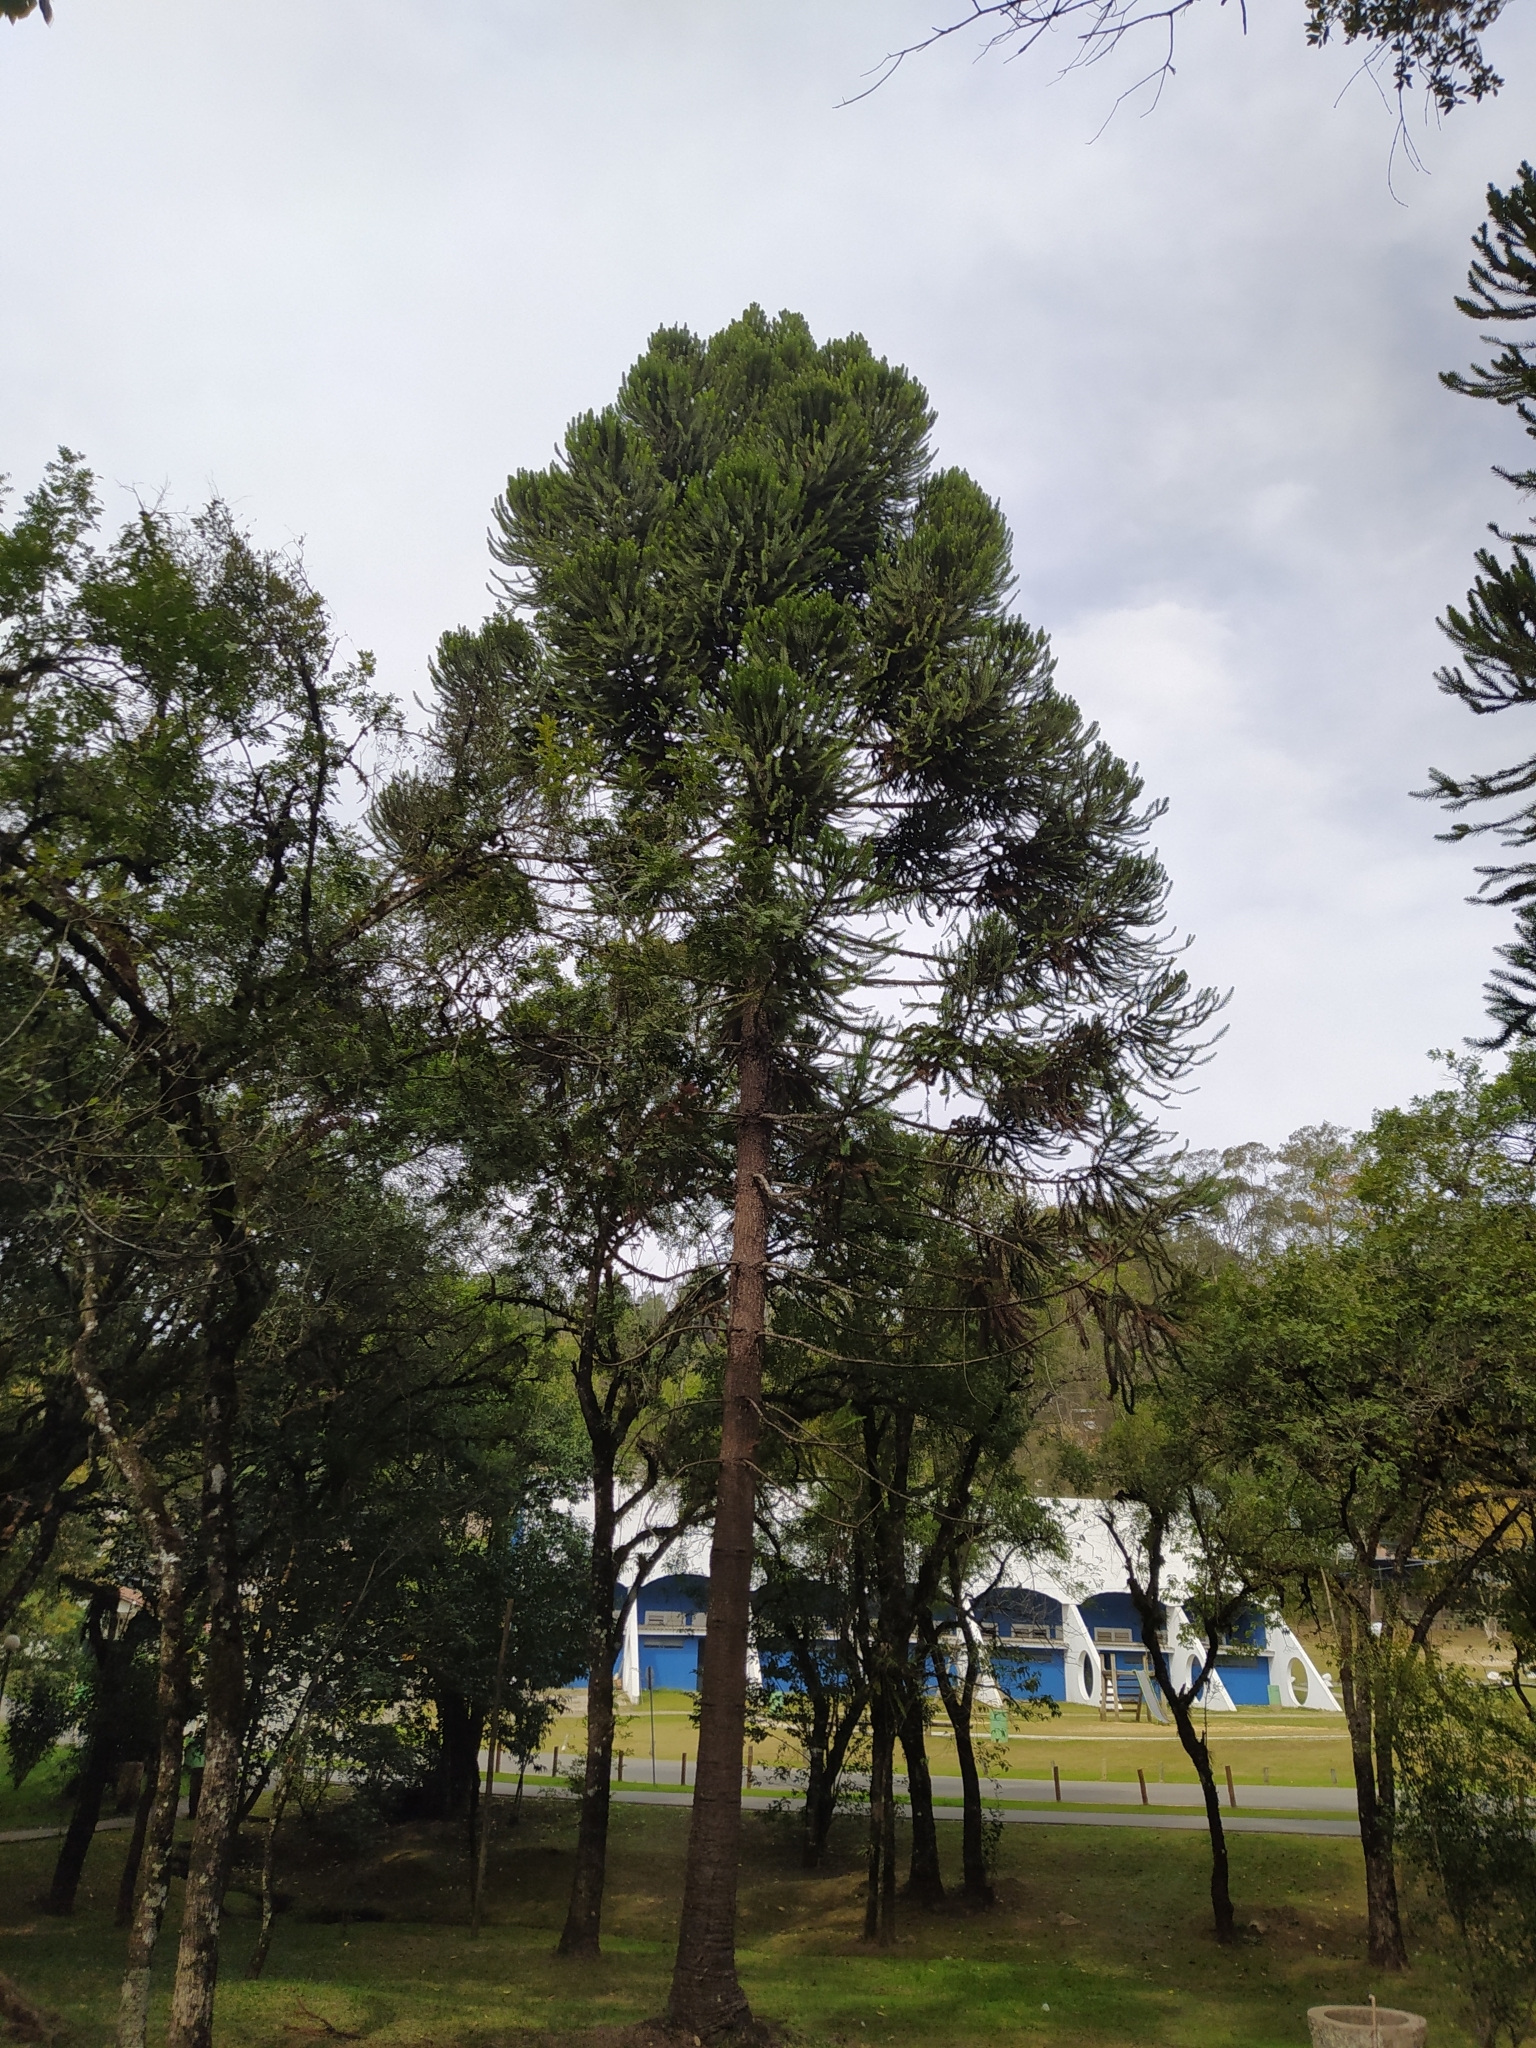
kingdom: Plantae
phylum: Tracheophyta
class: Pinopsida
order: Pinales
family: Araucariaceae
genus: Araucaria
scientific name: Araucaria angustifolia
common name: Candelabra tree
